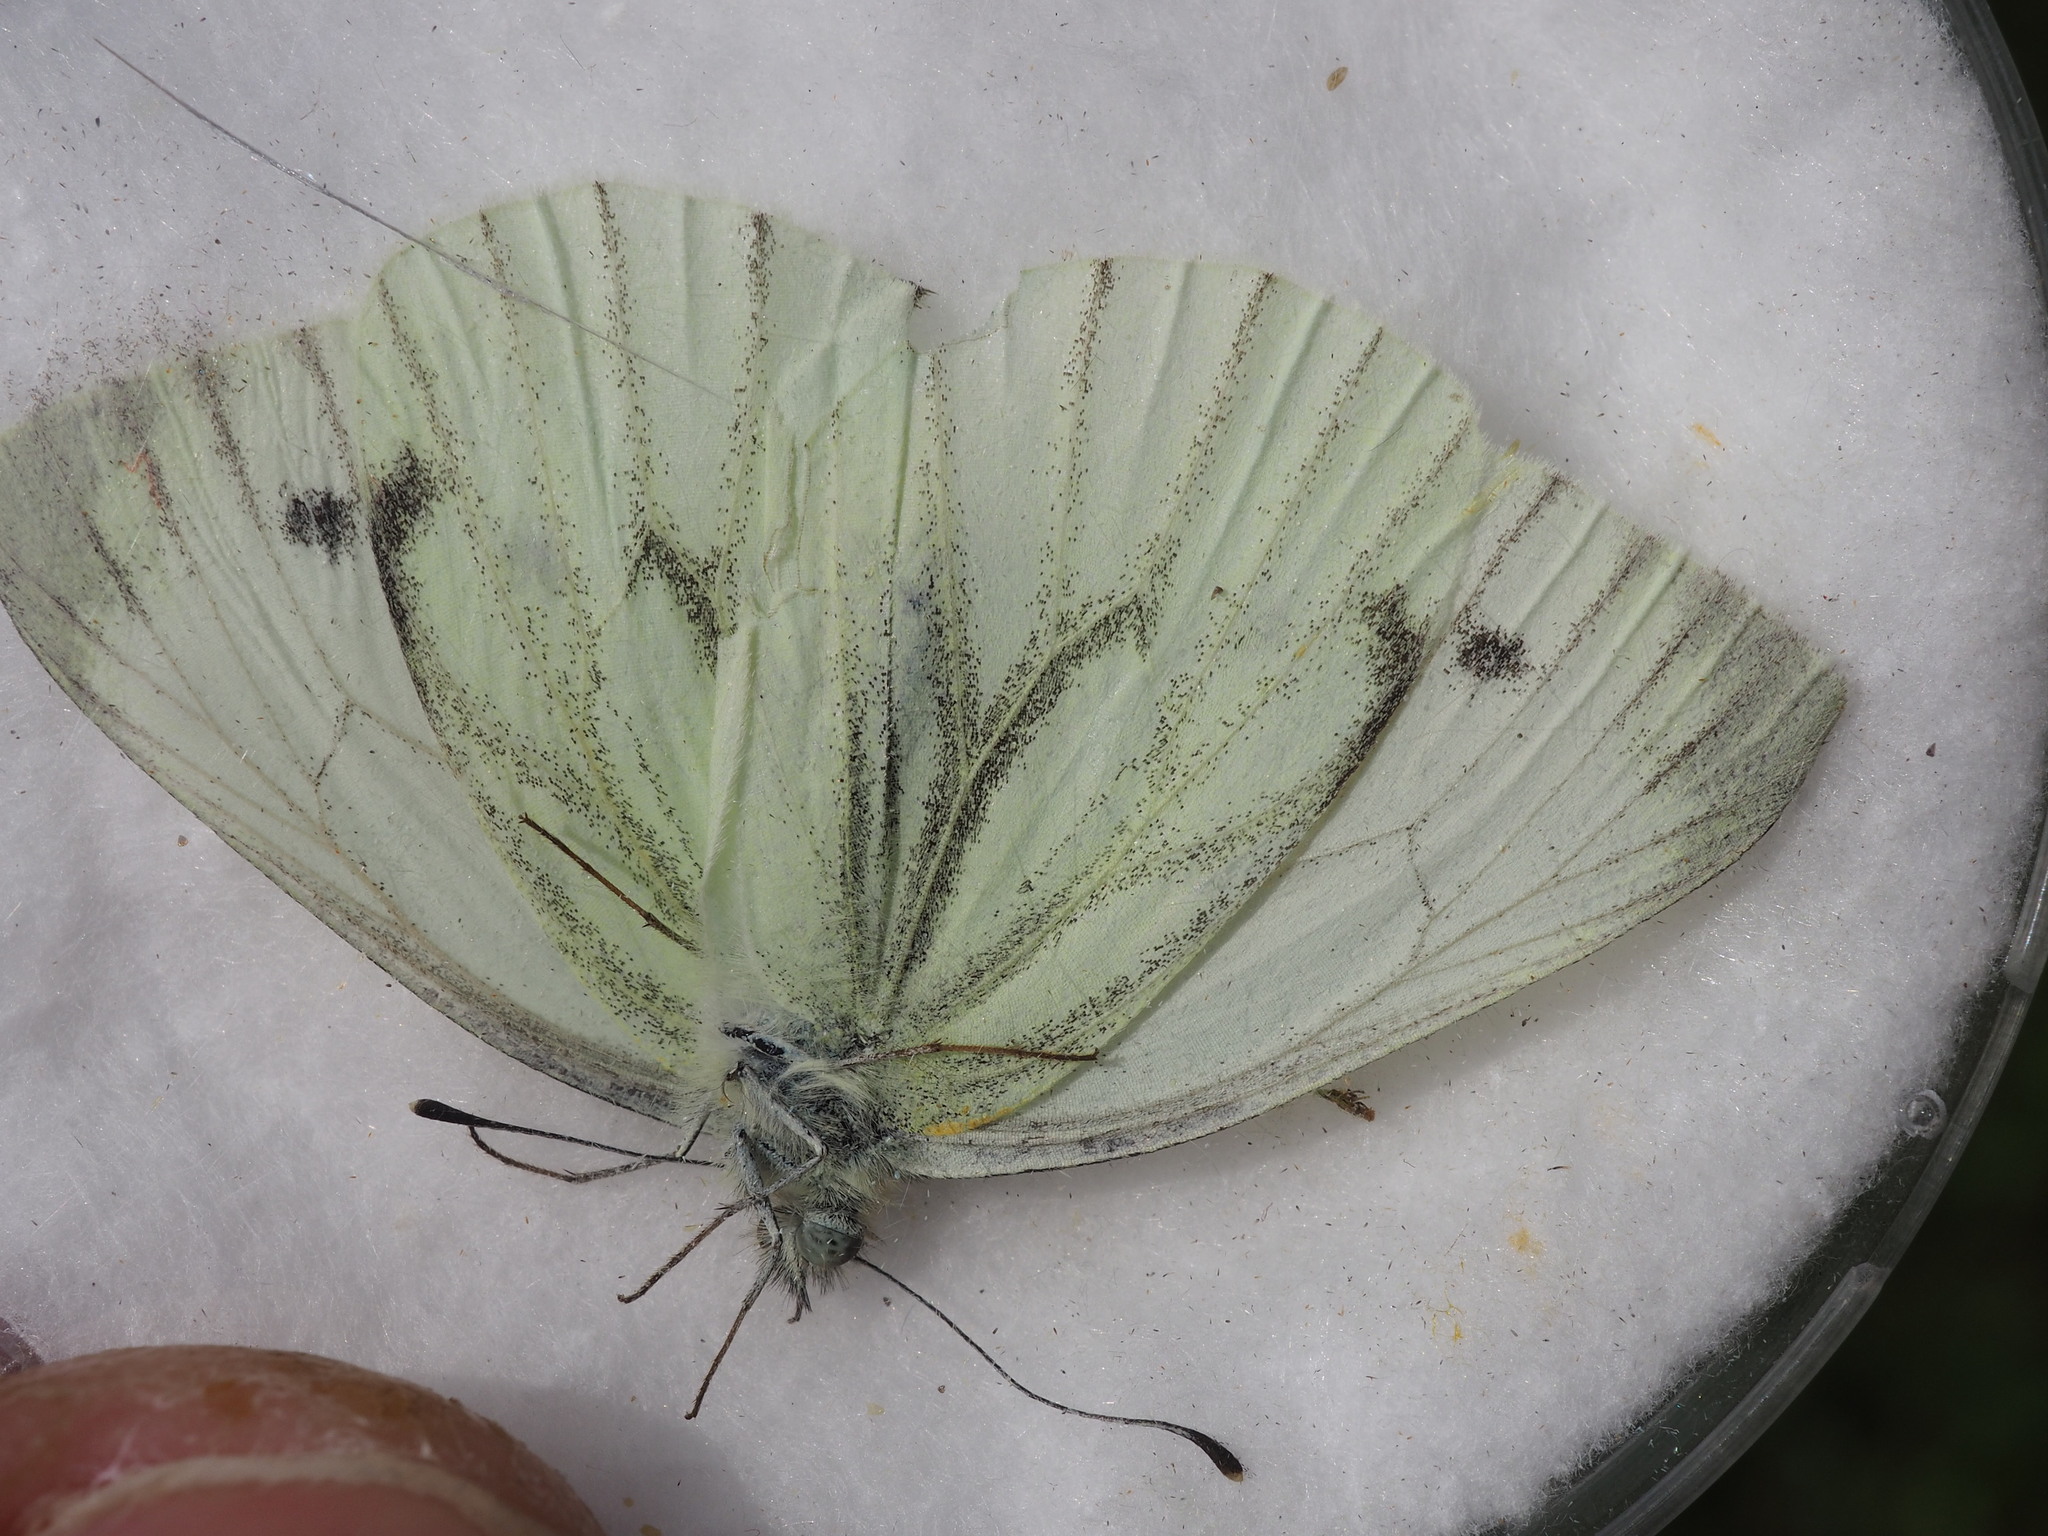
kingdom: Animalia
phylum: Arthropoda
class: Insecta
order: Lepidoptera
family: Pieridae
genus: Pieris
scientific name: Pieris napi
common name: Green-veined white
